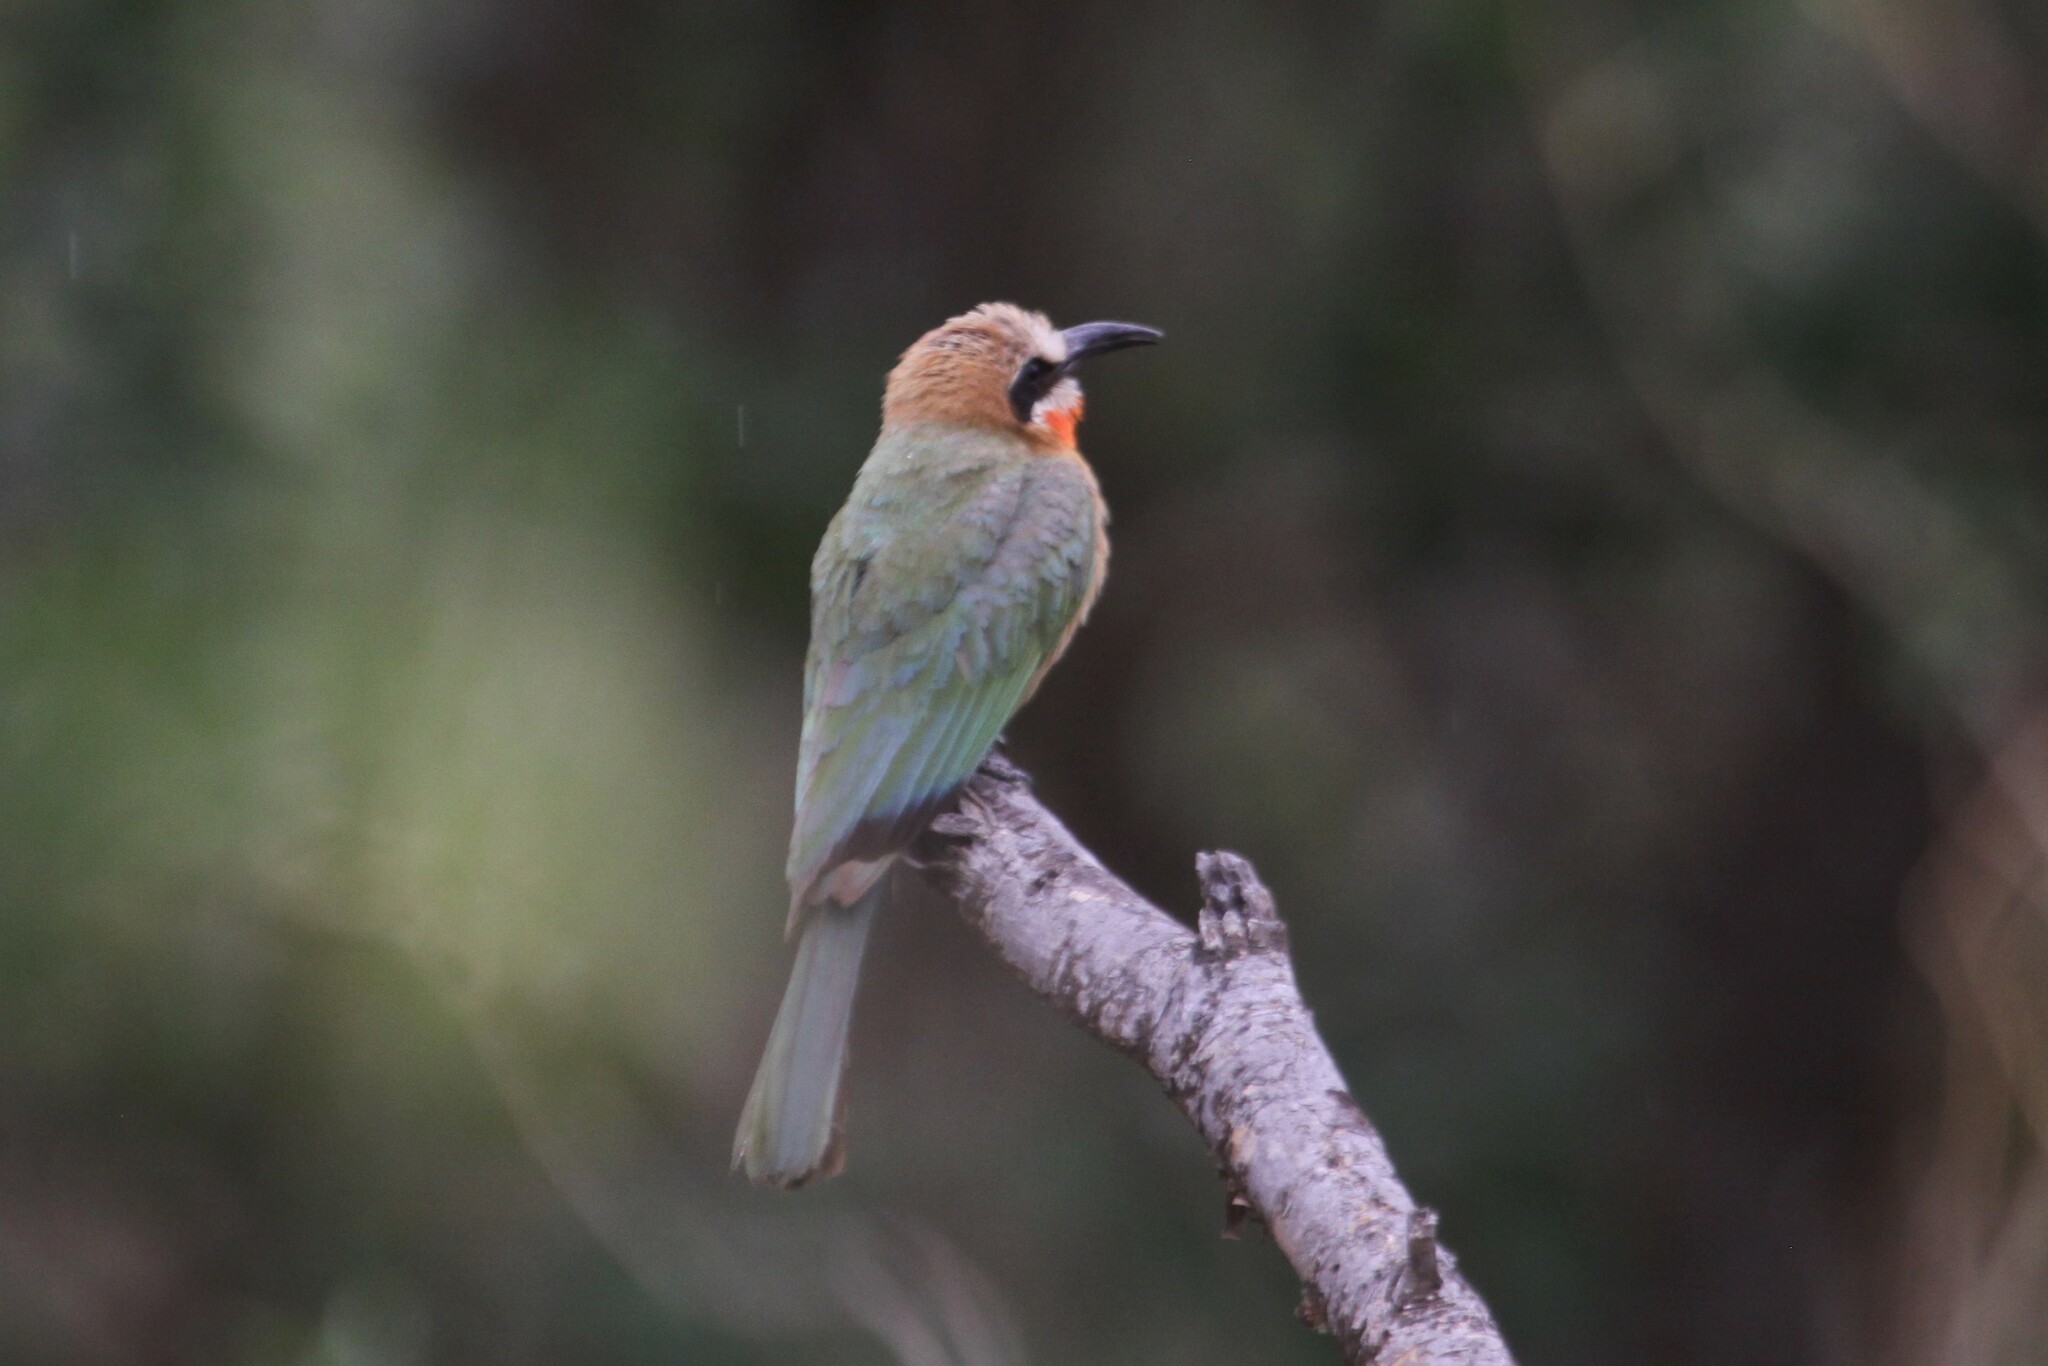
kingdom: Animalia
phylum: Chordata
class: Aves
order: Coraciiformes
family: Meropidae
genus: Merops
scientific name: Merops bullockoides
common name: White-fronted bee-eater
